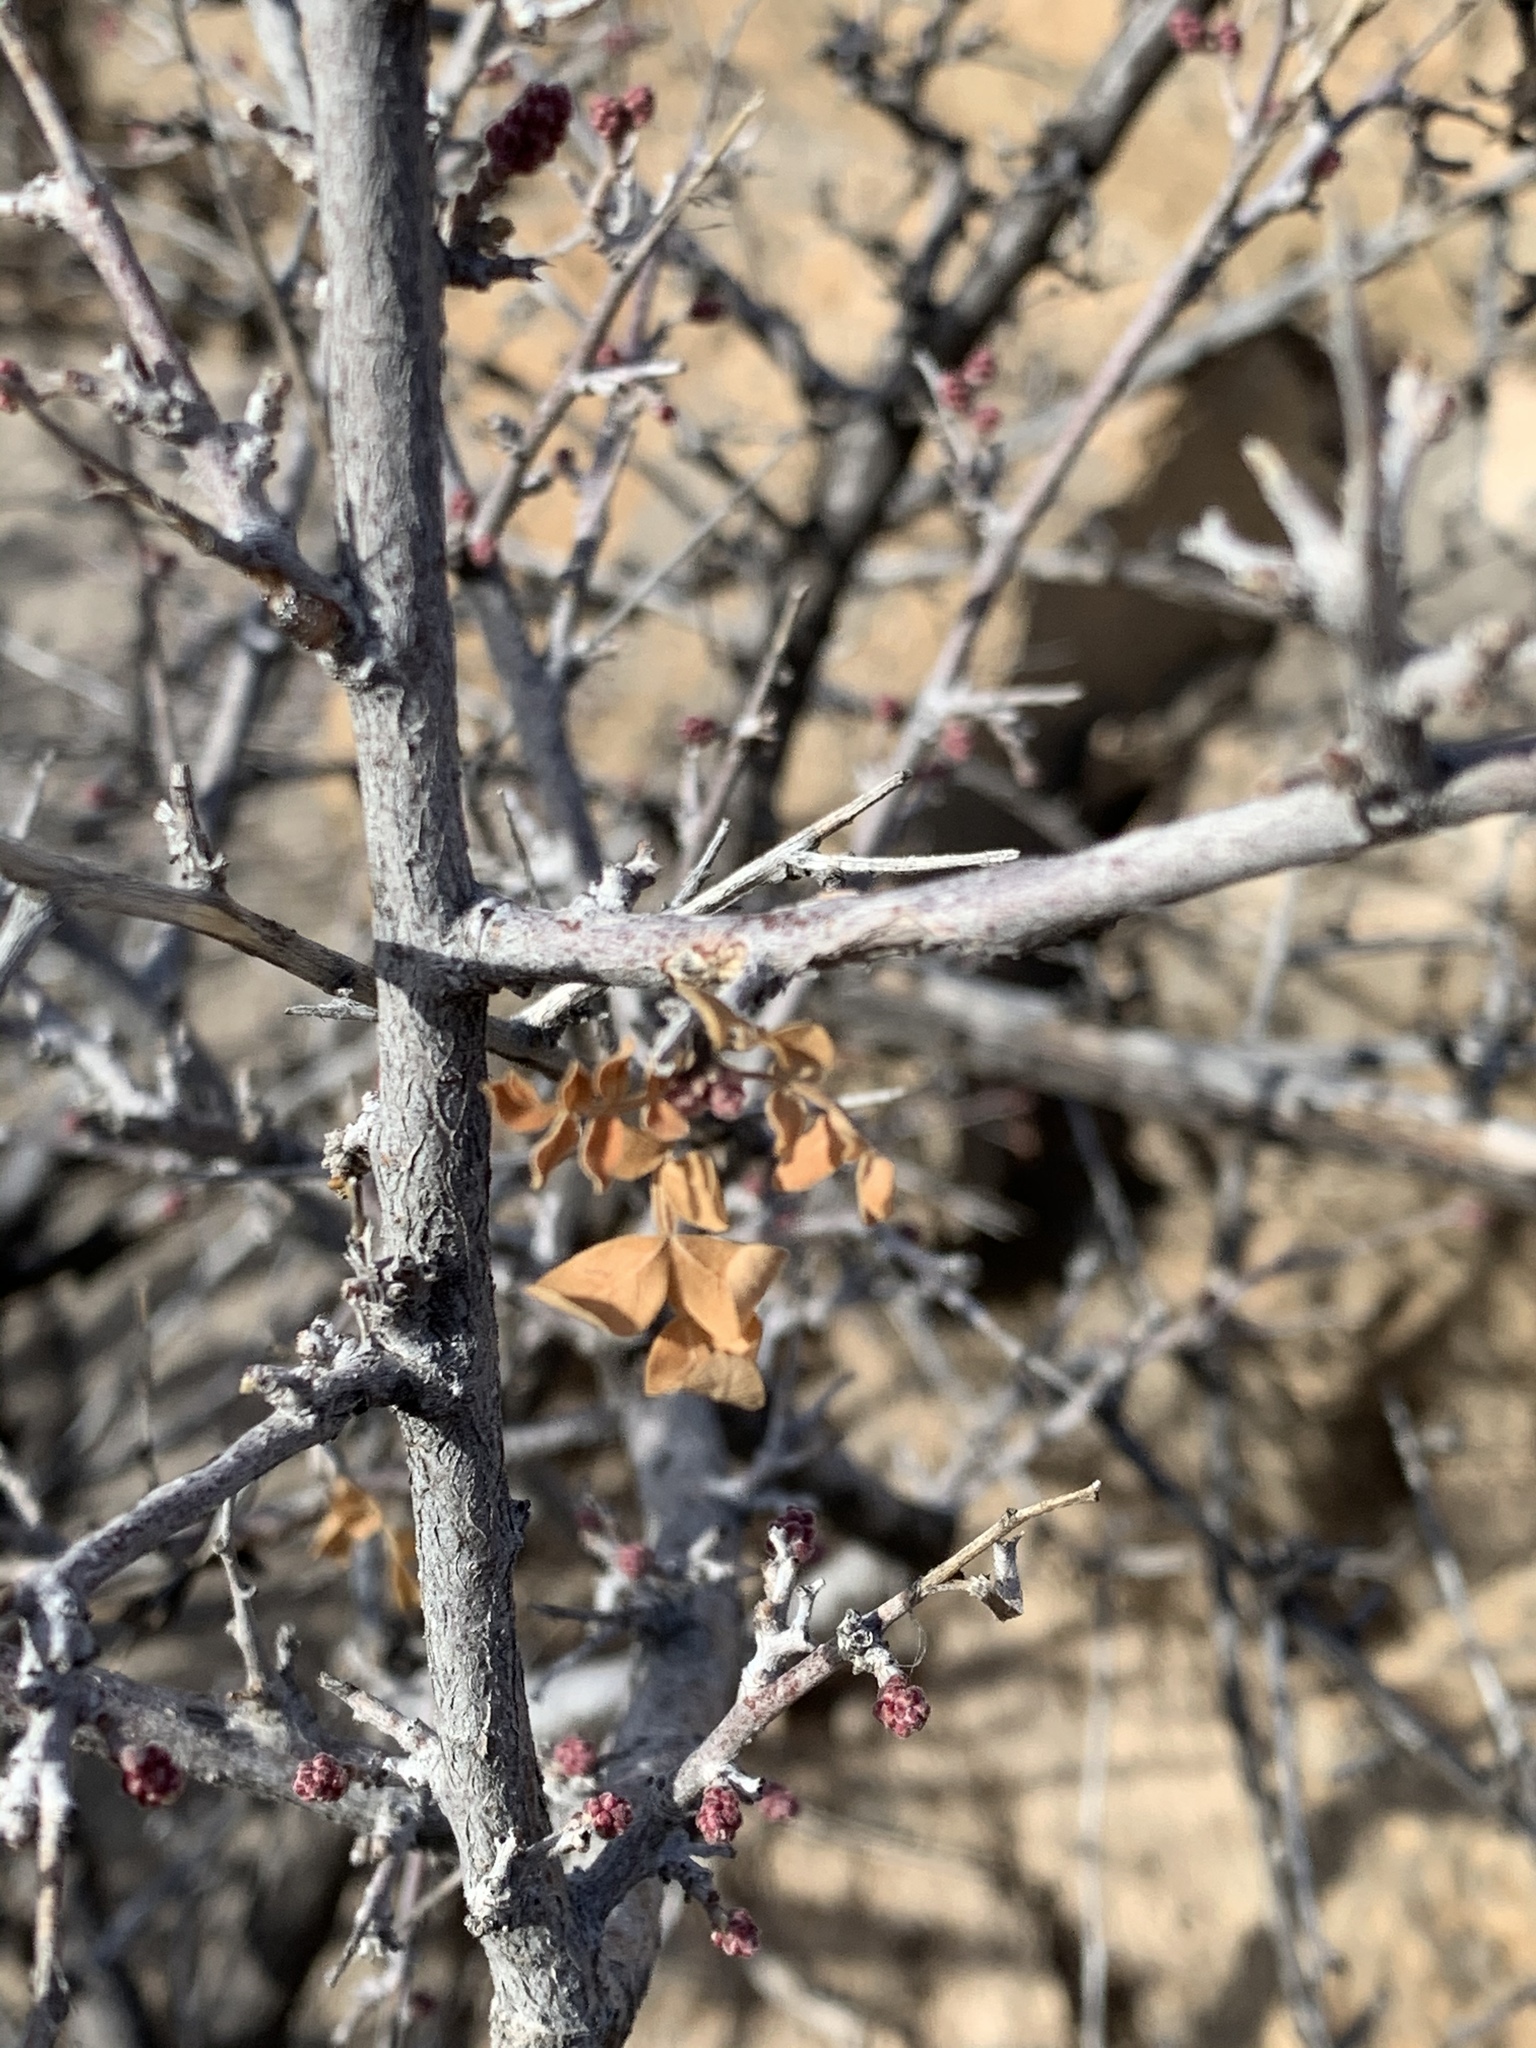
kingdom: Plantae
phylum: Tracheophyta
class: Magnoliopsida
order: Sapindales
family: Anacardiaceae
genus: Rhus
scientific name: Rhus microphylla
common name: Desert sumac
